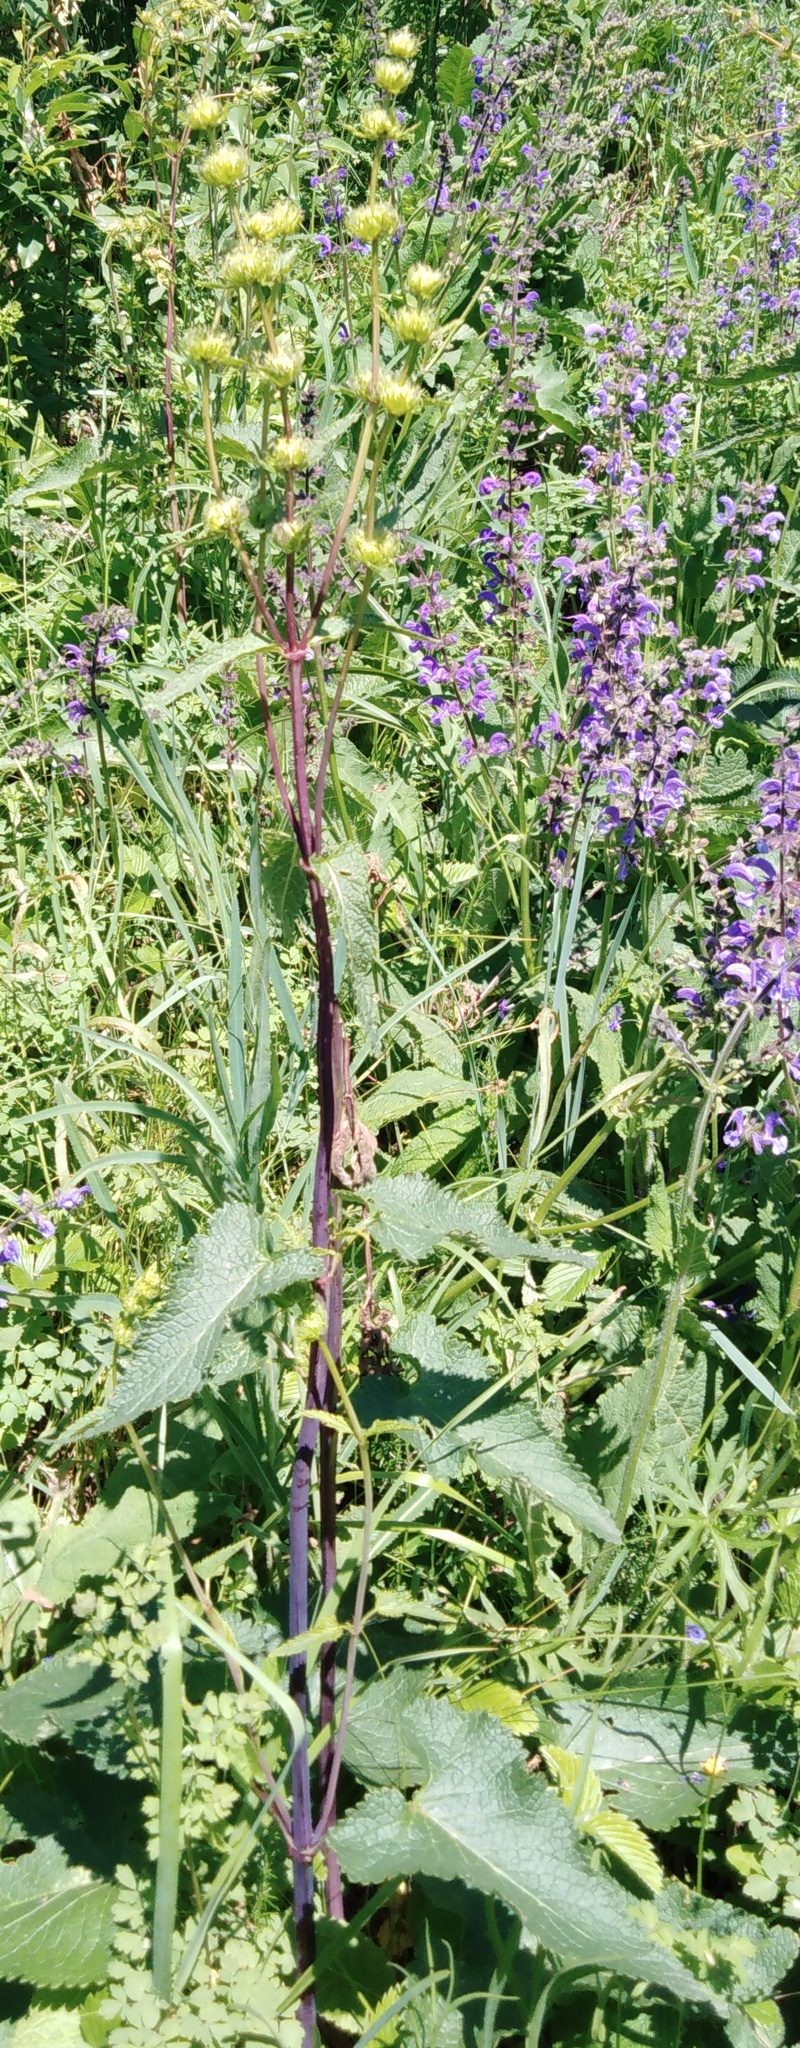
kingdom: Plantae
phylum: Tracheophyta
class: Magnoliopsida
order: Lamiales
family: Lamiaceae
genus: Phlomoides
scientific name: Phlomoides tuberosa
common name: Tuberous jerusalem sage
